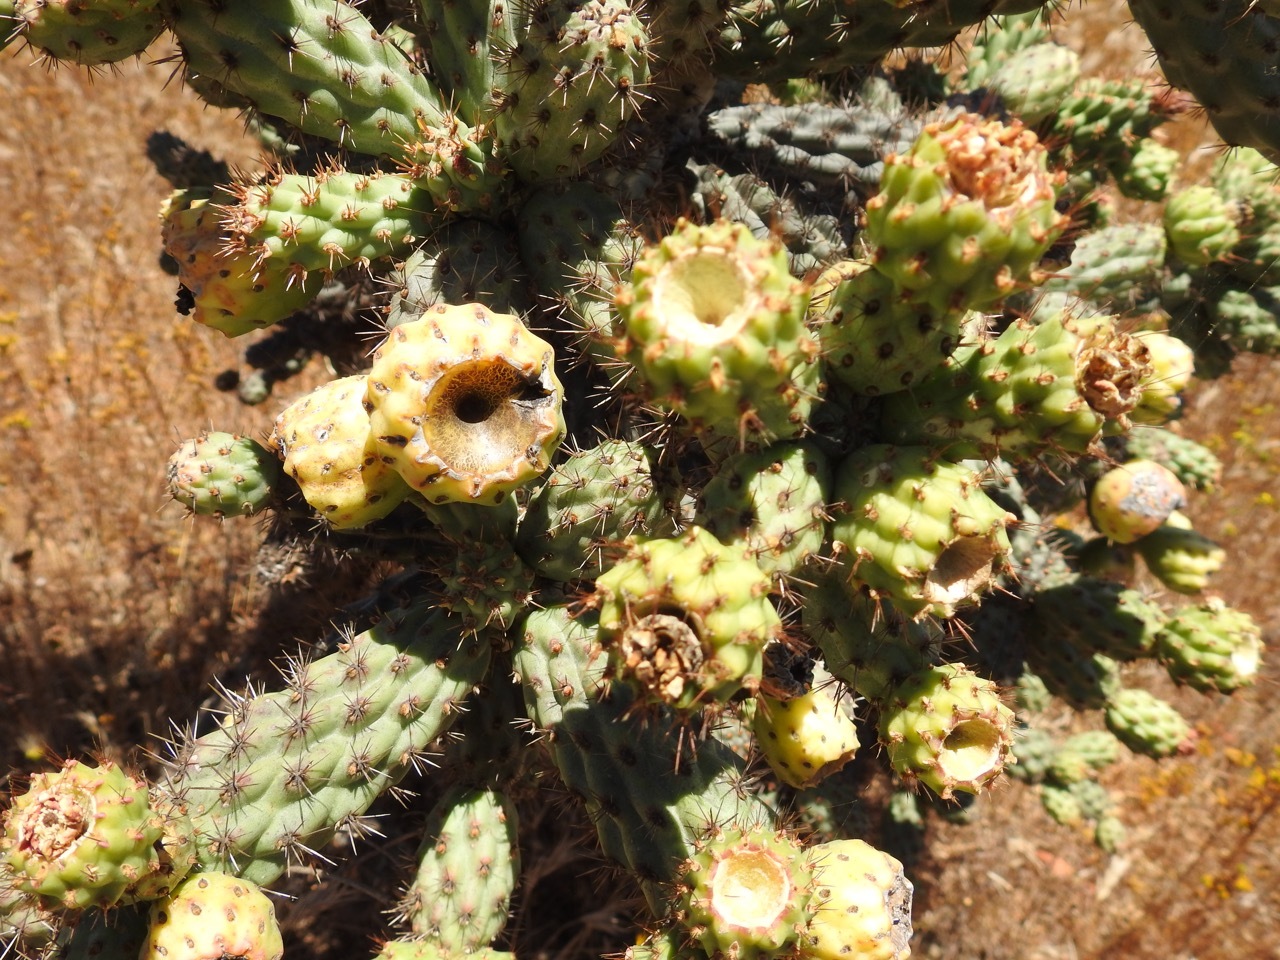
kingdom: Plantae
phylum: Tracheophyta
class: Magnoliopsida
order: Caryophyllales
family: Cactaceae
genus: Cylindropuntia
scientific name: Cylindropuntia alcahes
